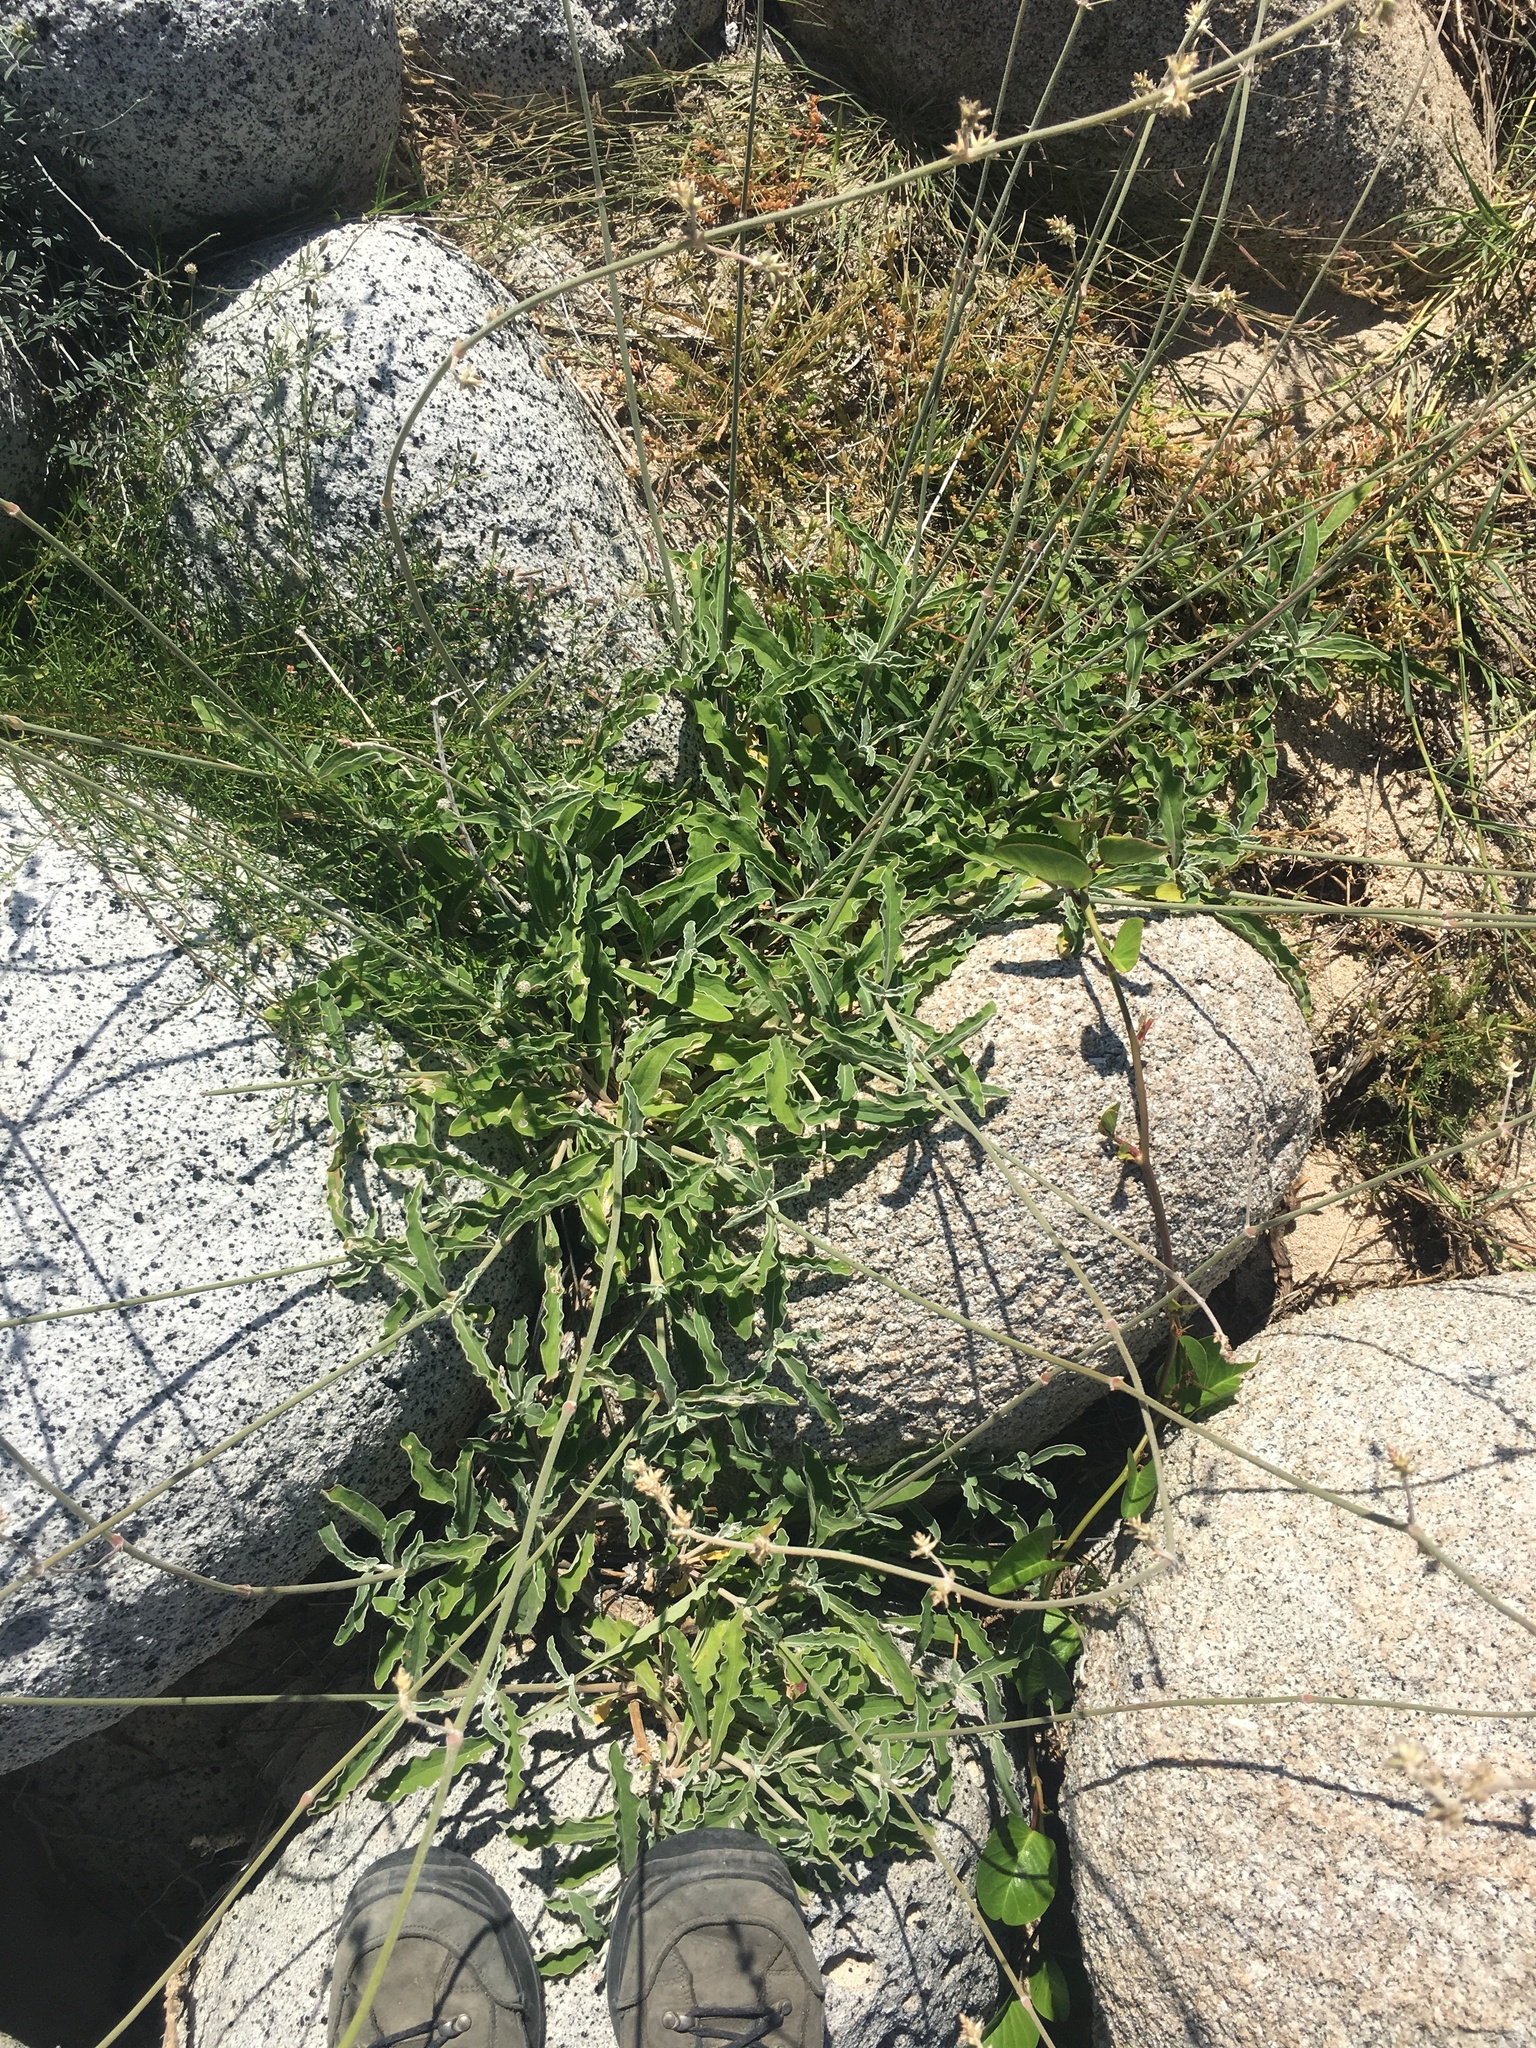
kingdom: Plantae
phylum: Tracheophyta
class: Magnoliopsida
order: Caryophyllales
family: Amaranthaceae
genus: Froelichia
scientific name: Froelichia xantusii
